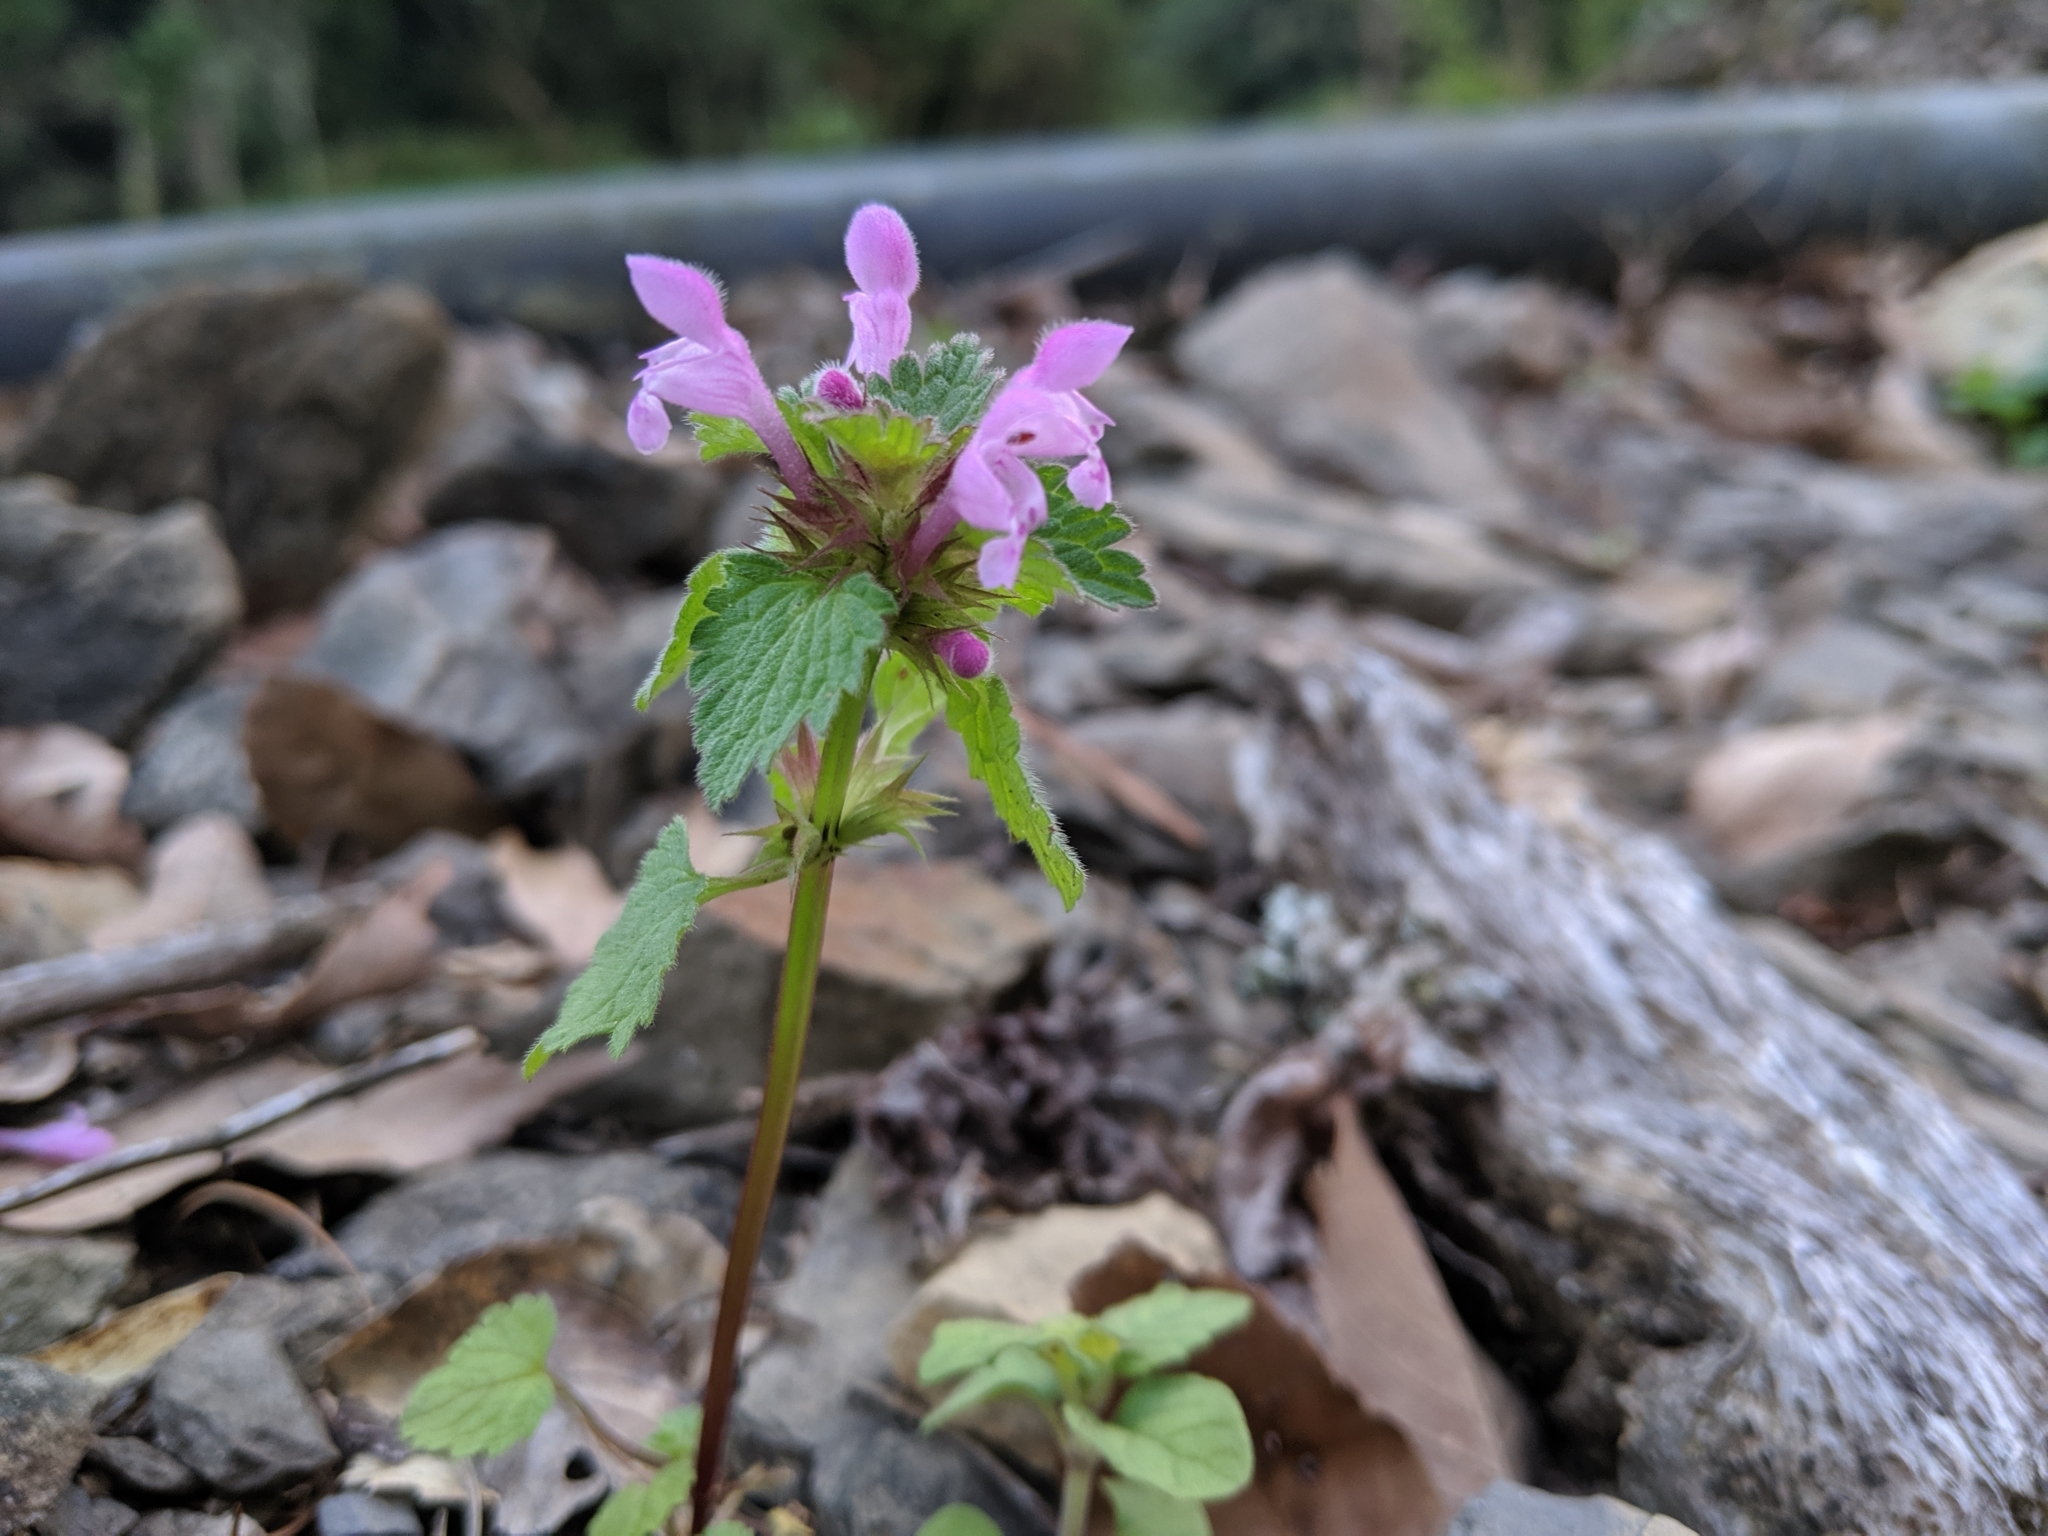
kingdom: Plantae
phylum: Tracheophyta
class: Magnoliopsida
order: Lamiales
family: Lamiaceae
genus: Lamium
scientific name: Lamium hybridum
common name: Cut-leaved dead-nettle
